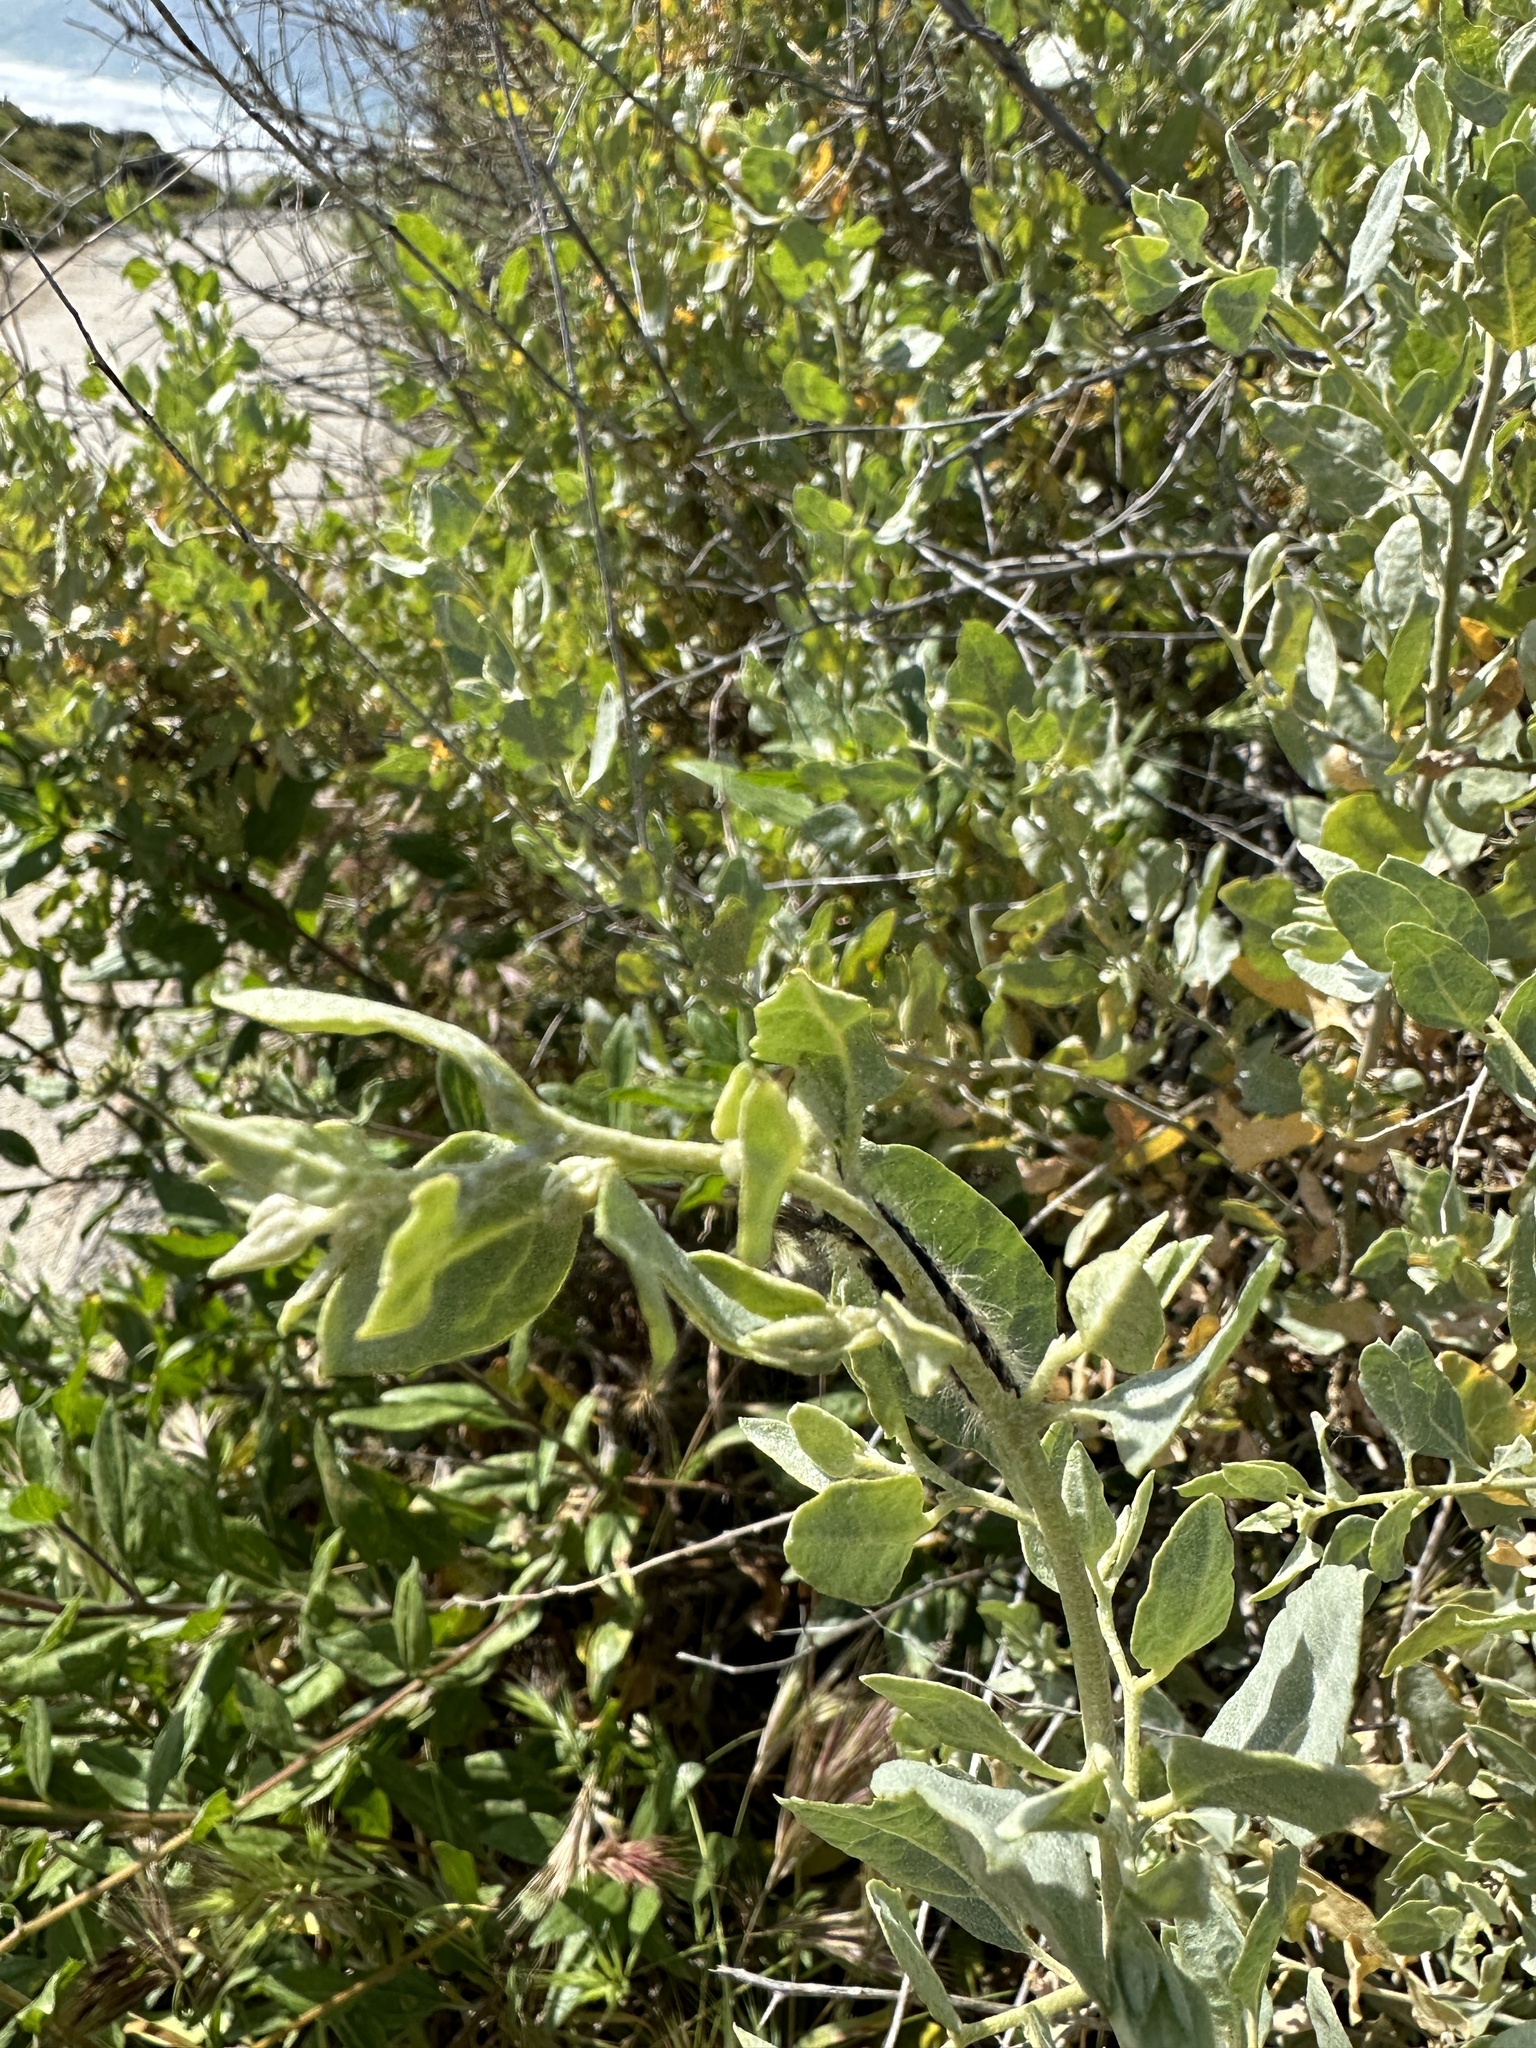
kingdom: Plantae
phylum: Tracheophyta
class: Magnoliopsida
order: Caryophyllales
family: Amaranthaceae
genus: Atriplex
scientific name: Atriplex lentiformis
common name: Big saltbush
